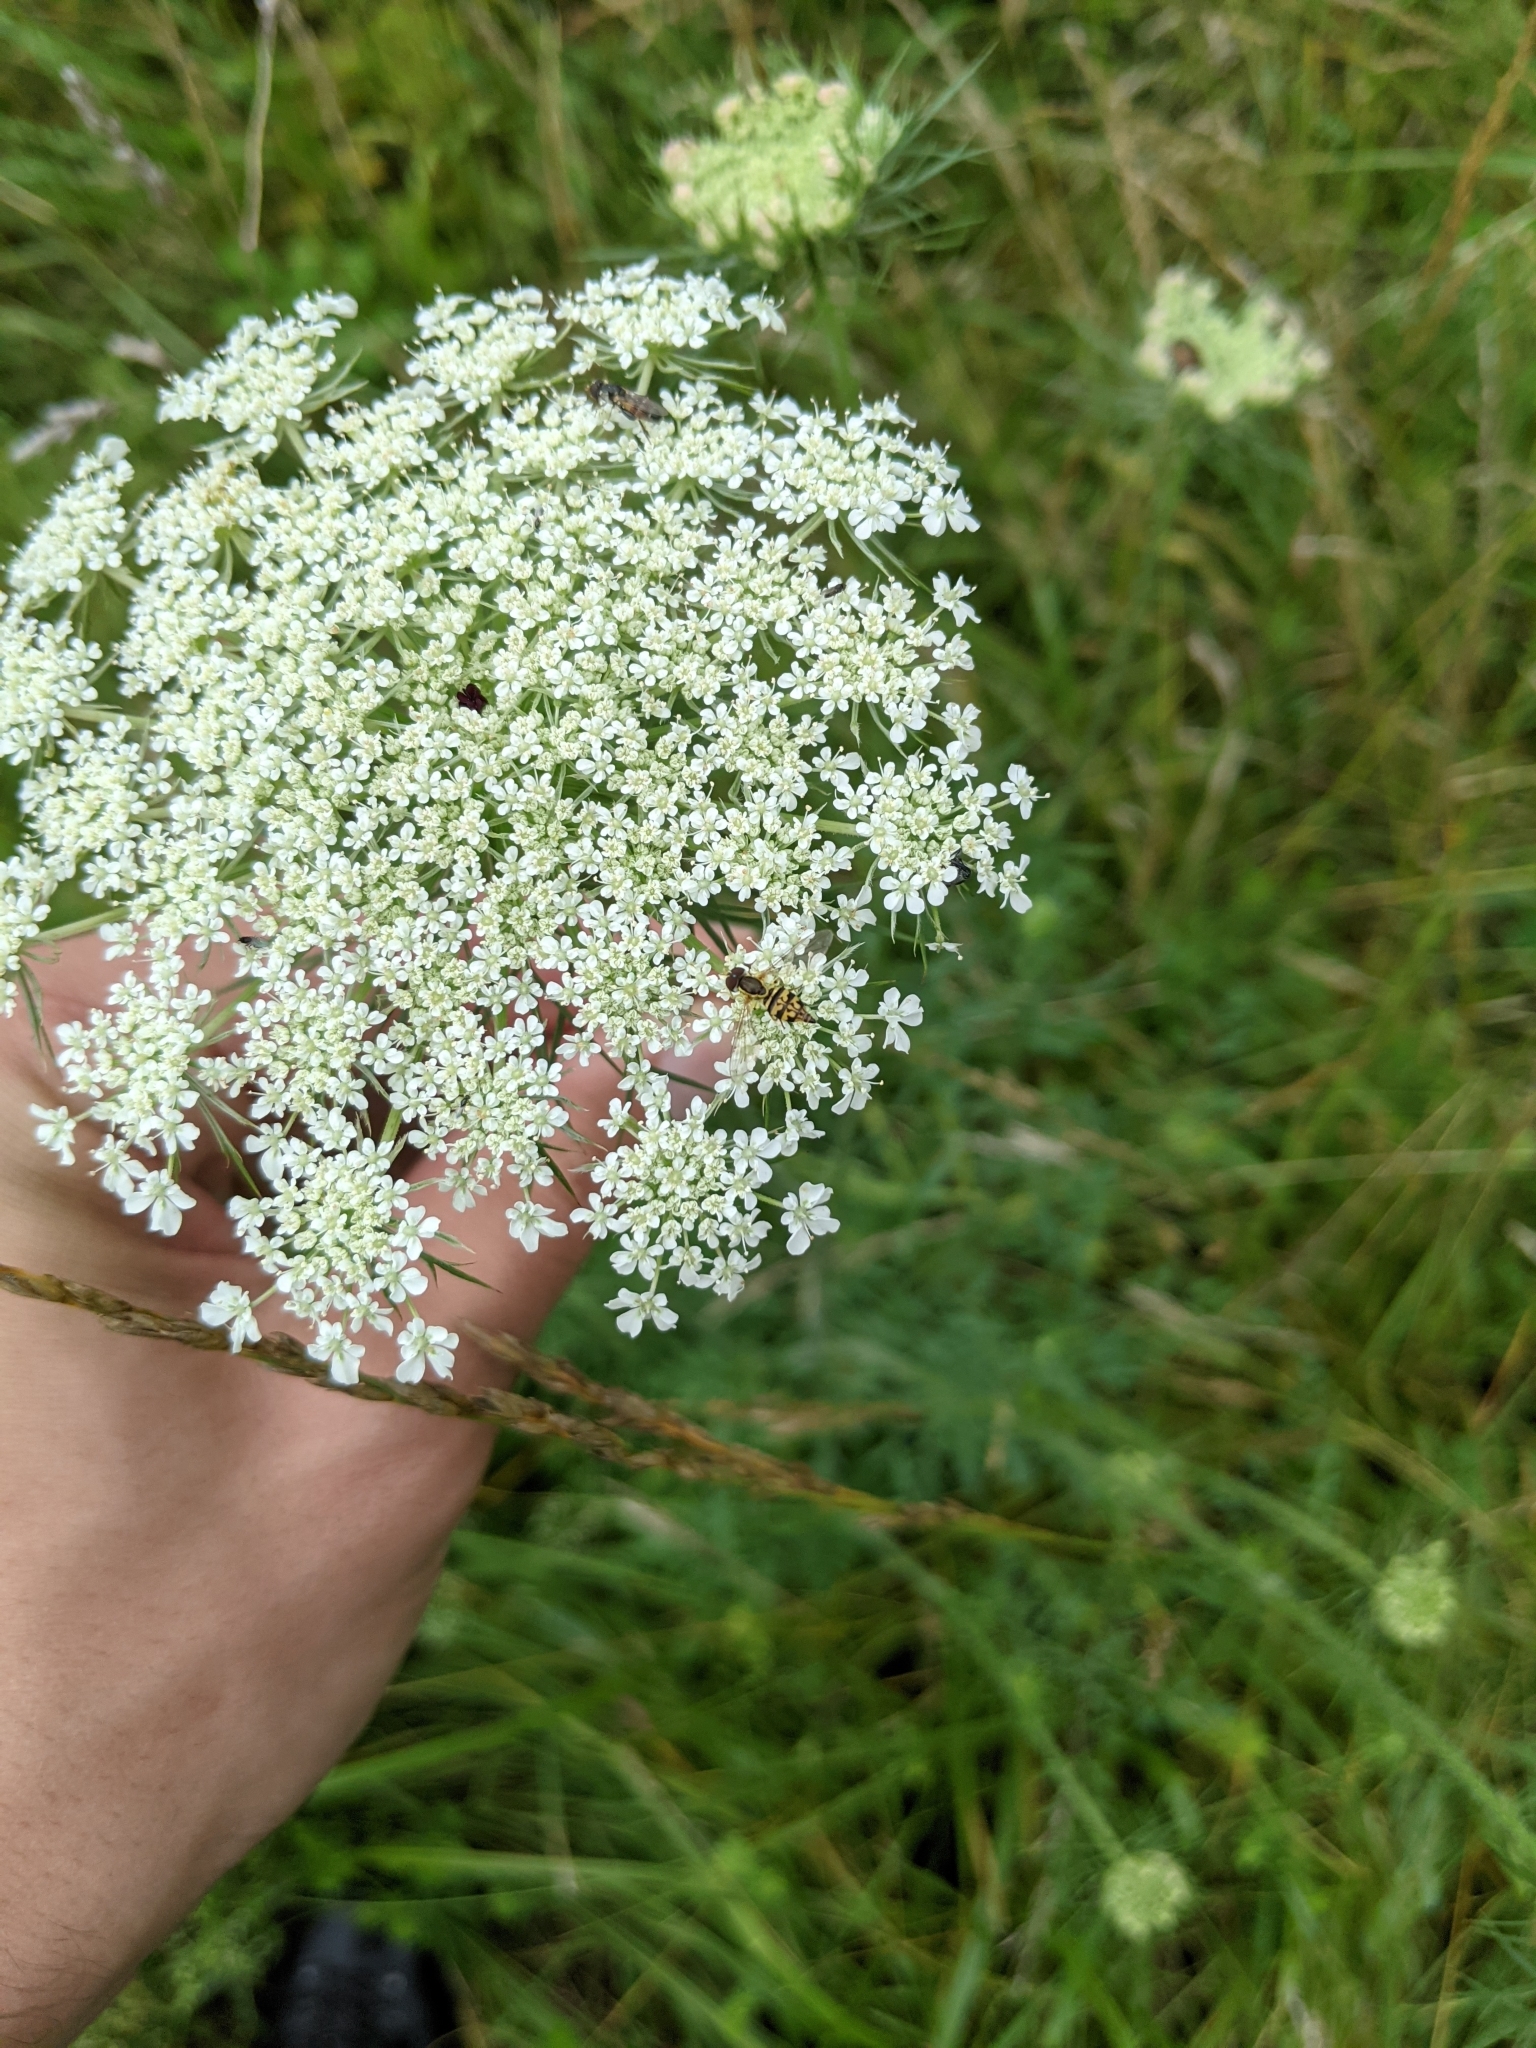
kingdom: Plantae
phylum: Tracheophyta
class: Magnoliopsida
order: Apiales
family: Apiaceae
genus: Daucus
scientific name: Daucus carota
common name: Wild carrot
